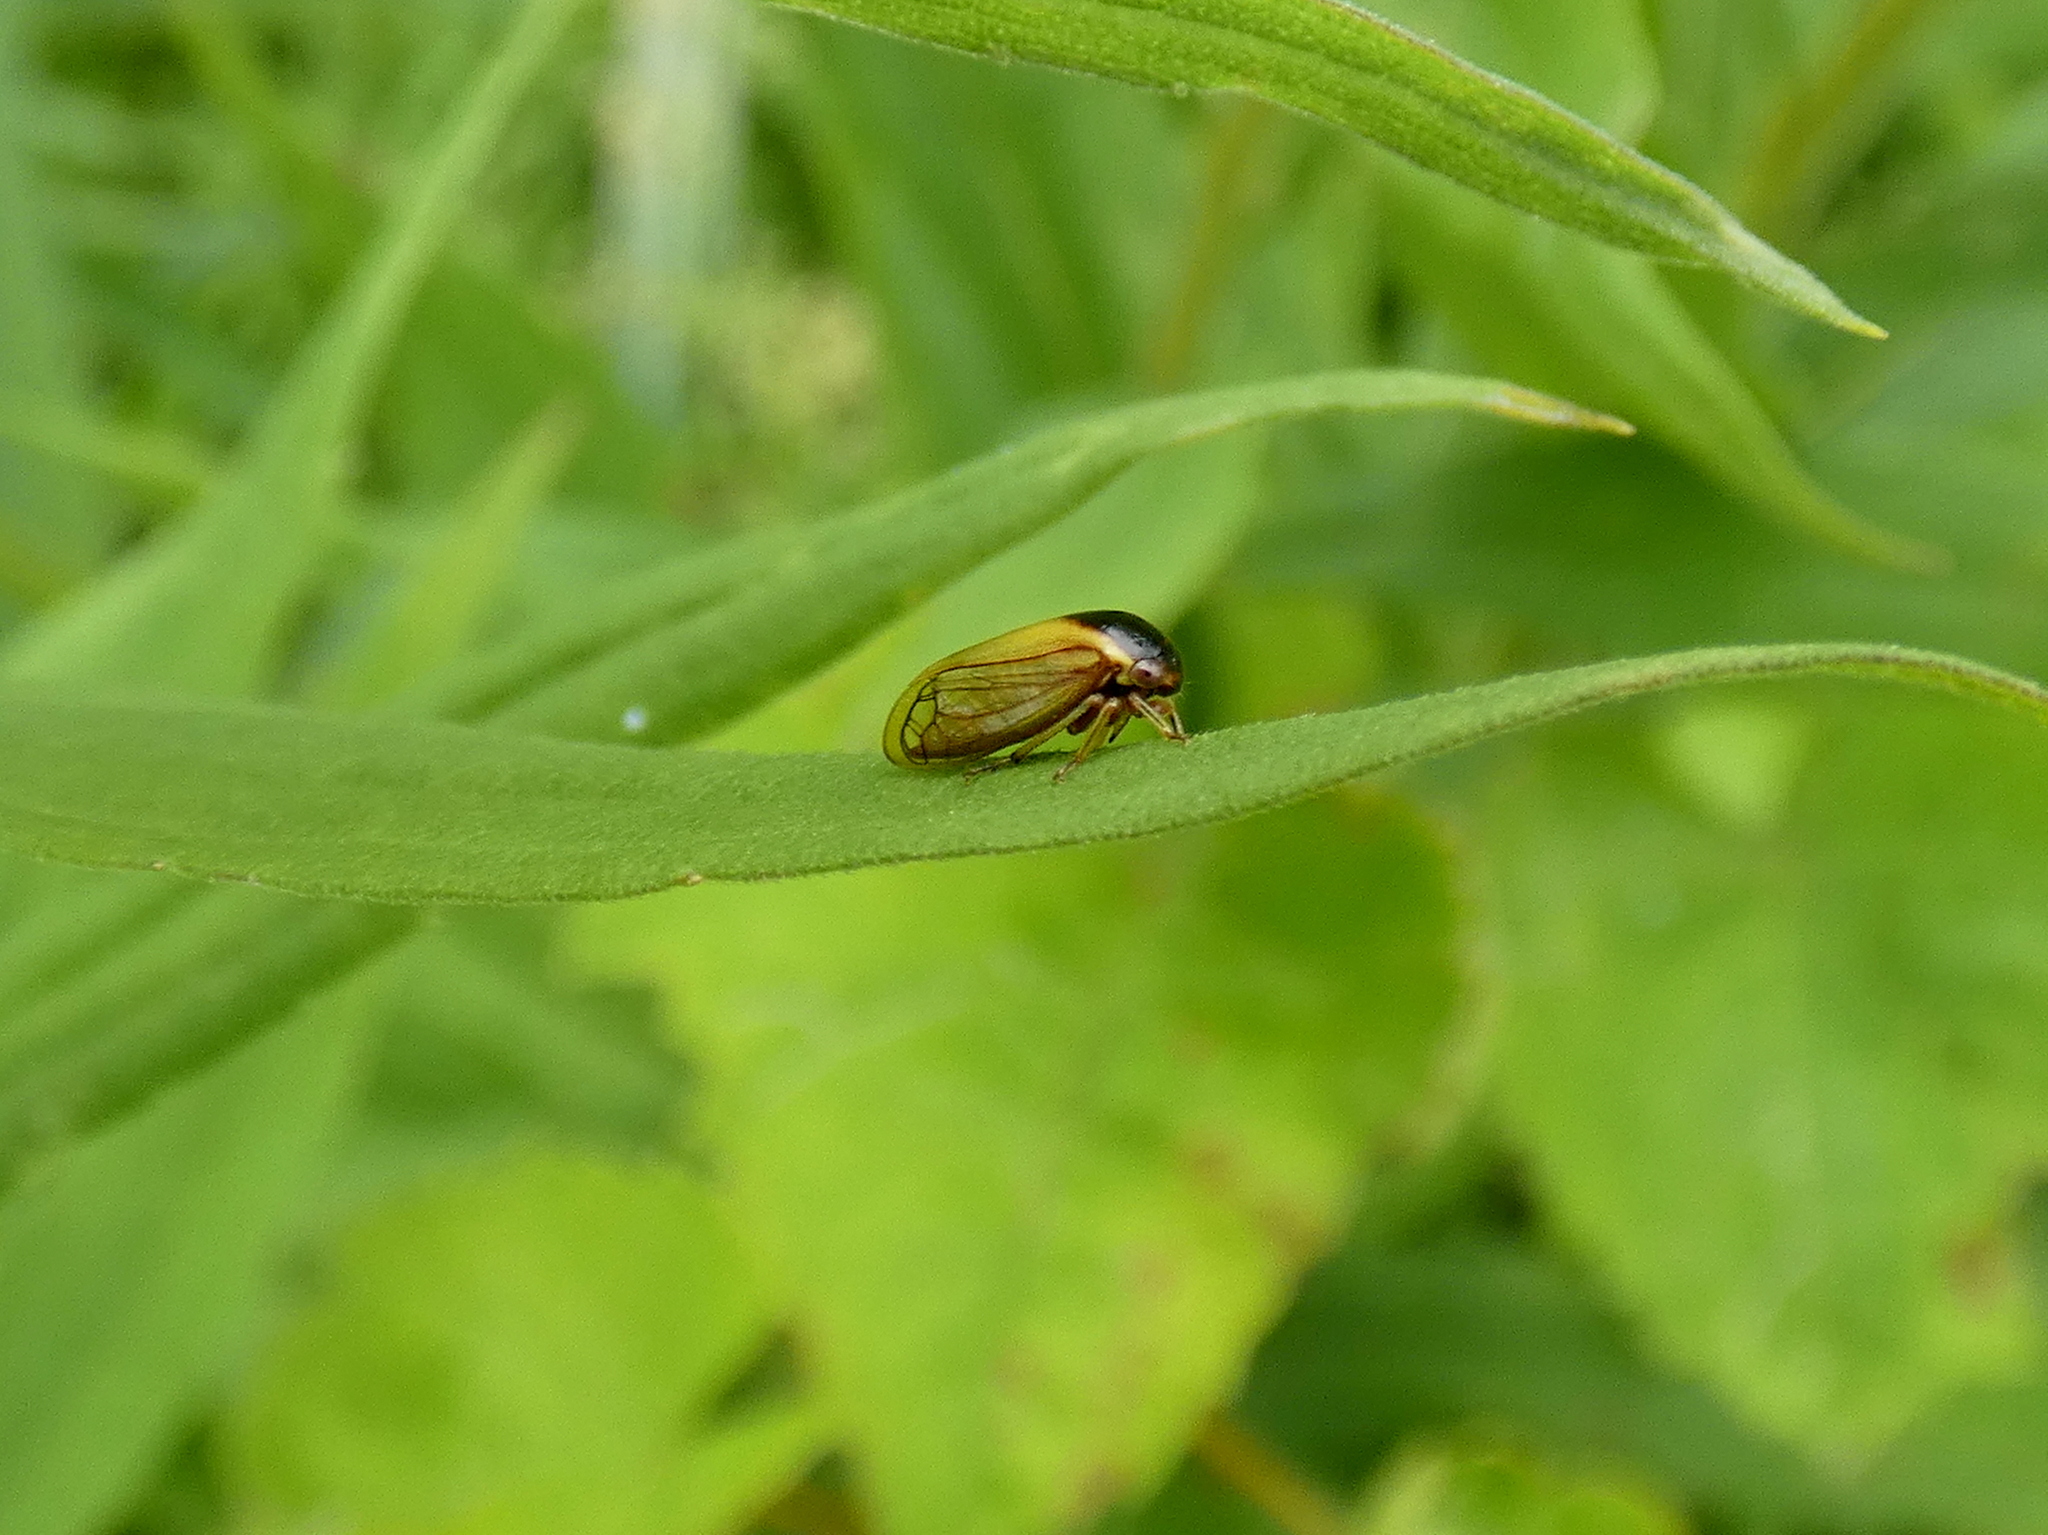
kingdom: Animalia
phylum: Arthropoda
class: Insecta
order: Hemiptera
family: Membracidae
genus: Acutalis
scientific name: Acutalis tartarea
